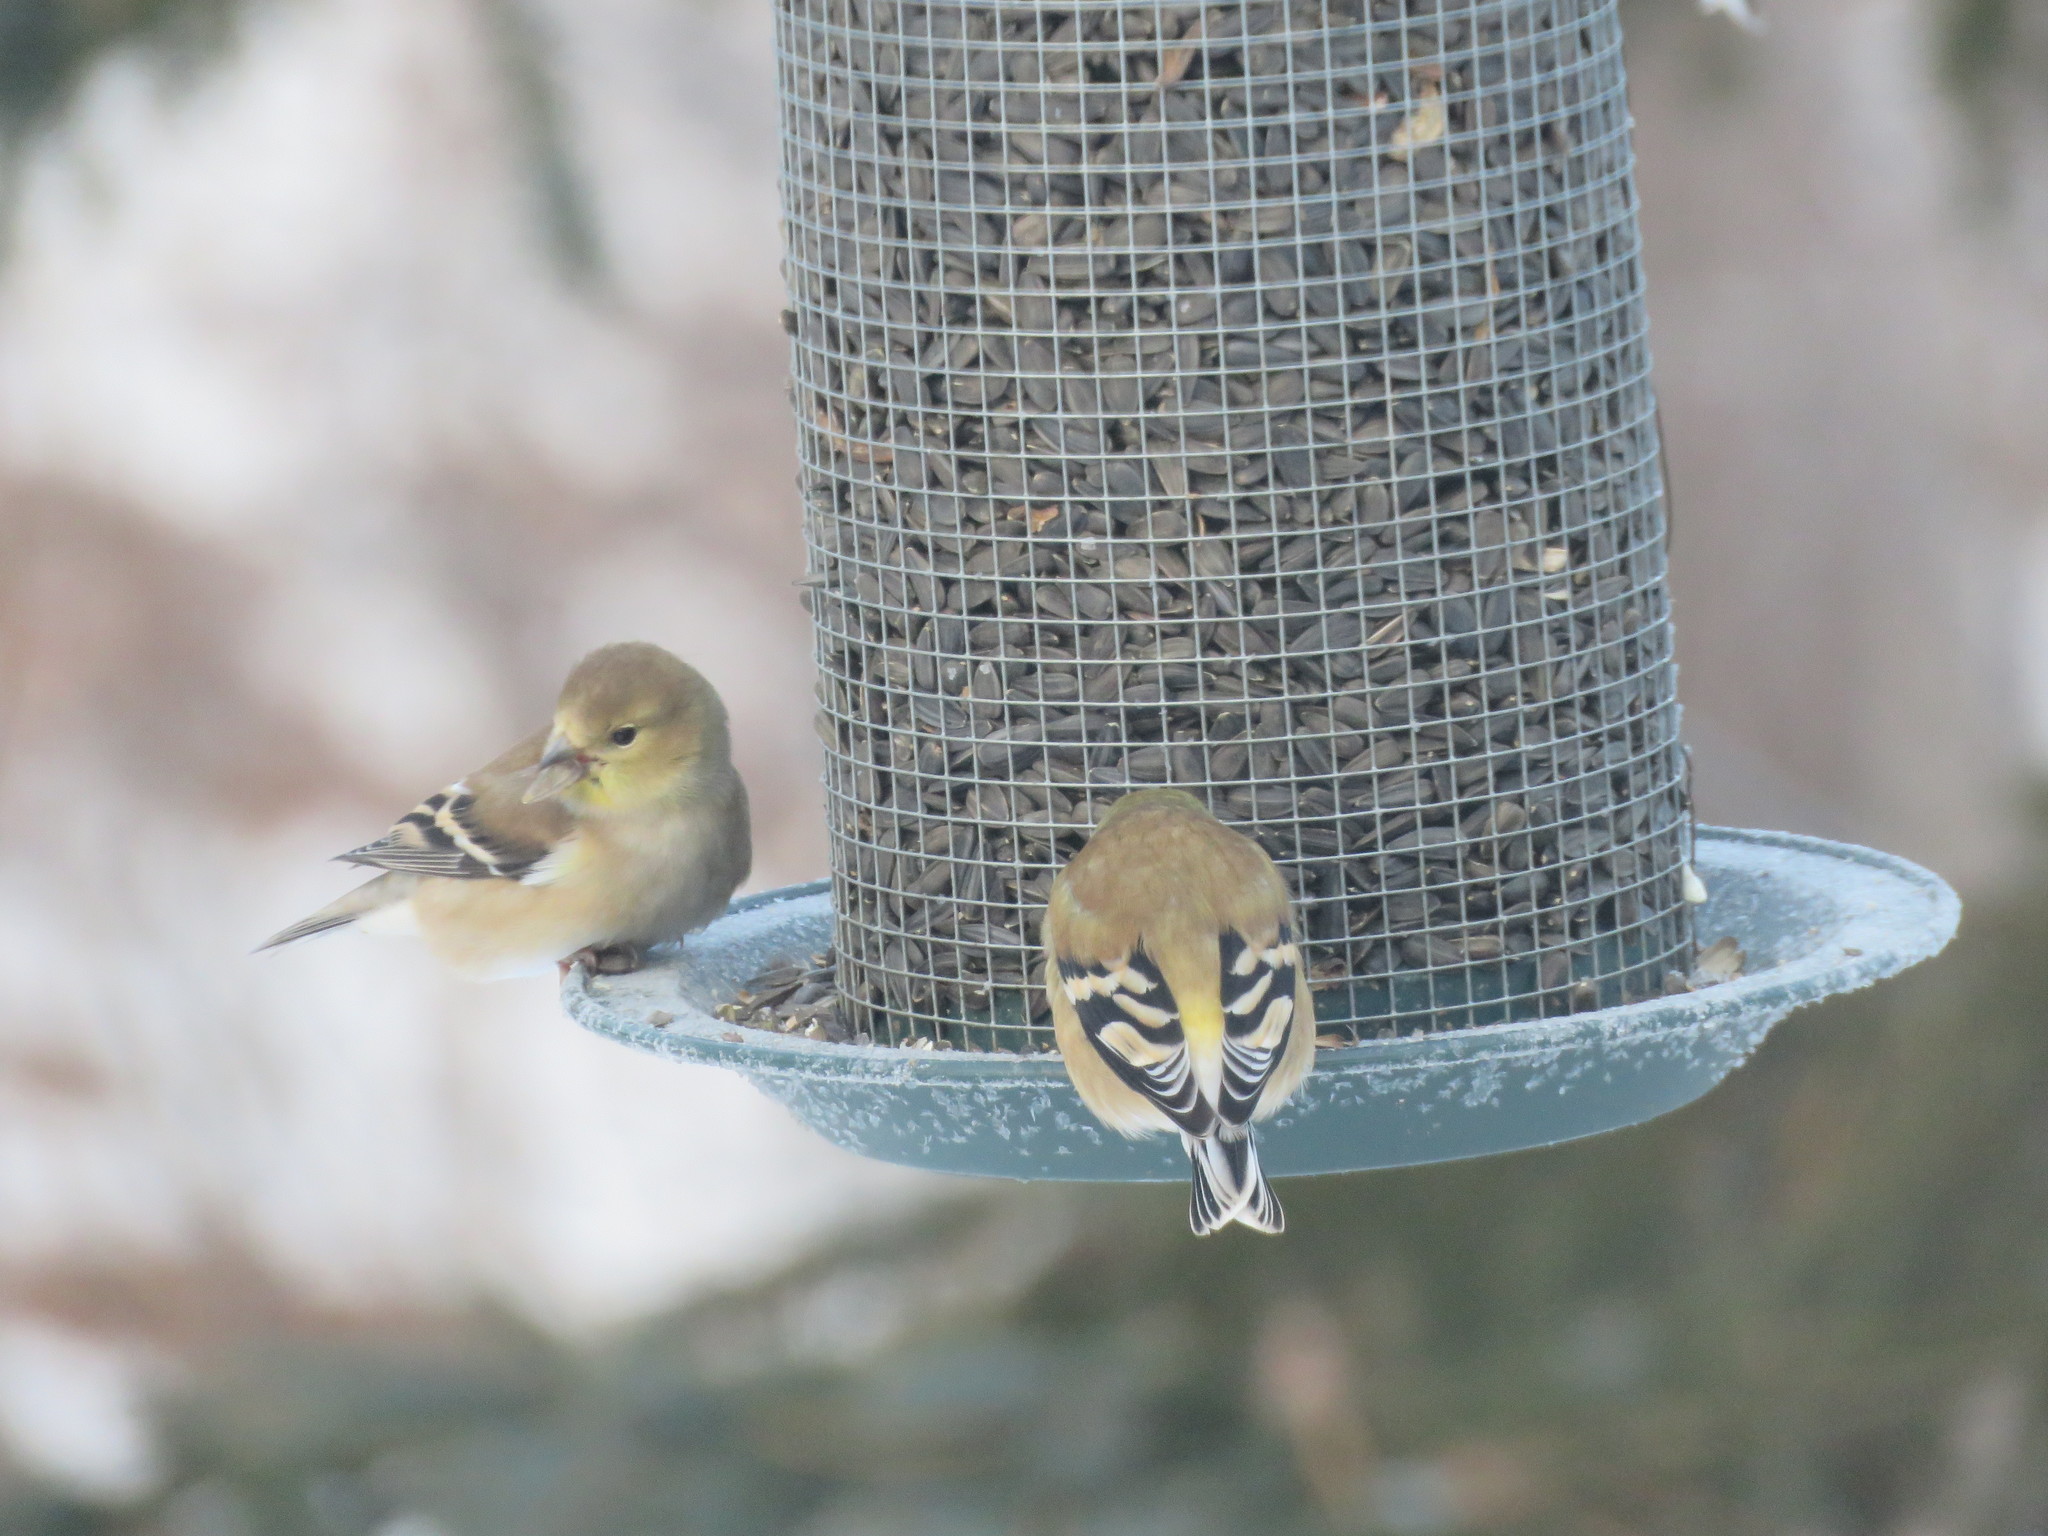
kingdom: Animalia
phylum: Chordata
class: Aves
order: Passeriformes
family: Fringillidae
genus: Spinus
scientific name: Spinus tristis
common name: American goldfinch
